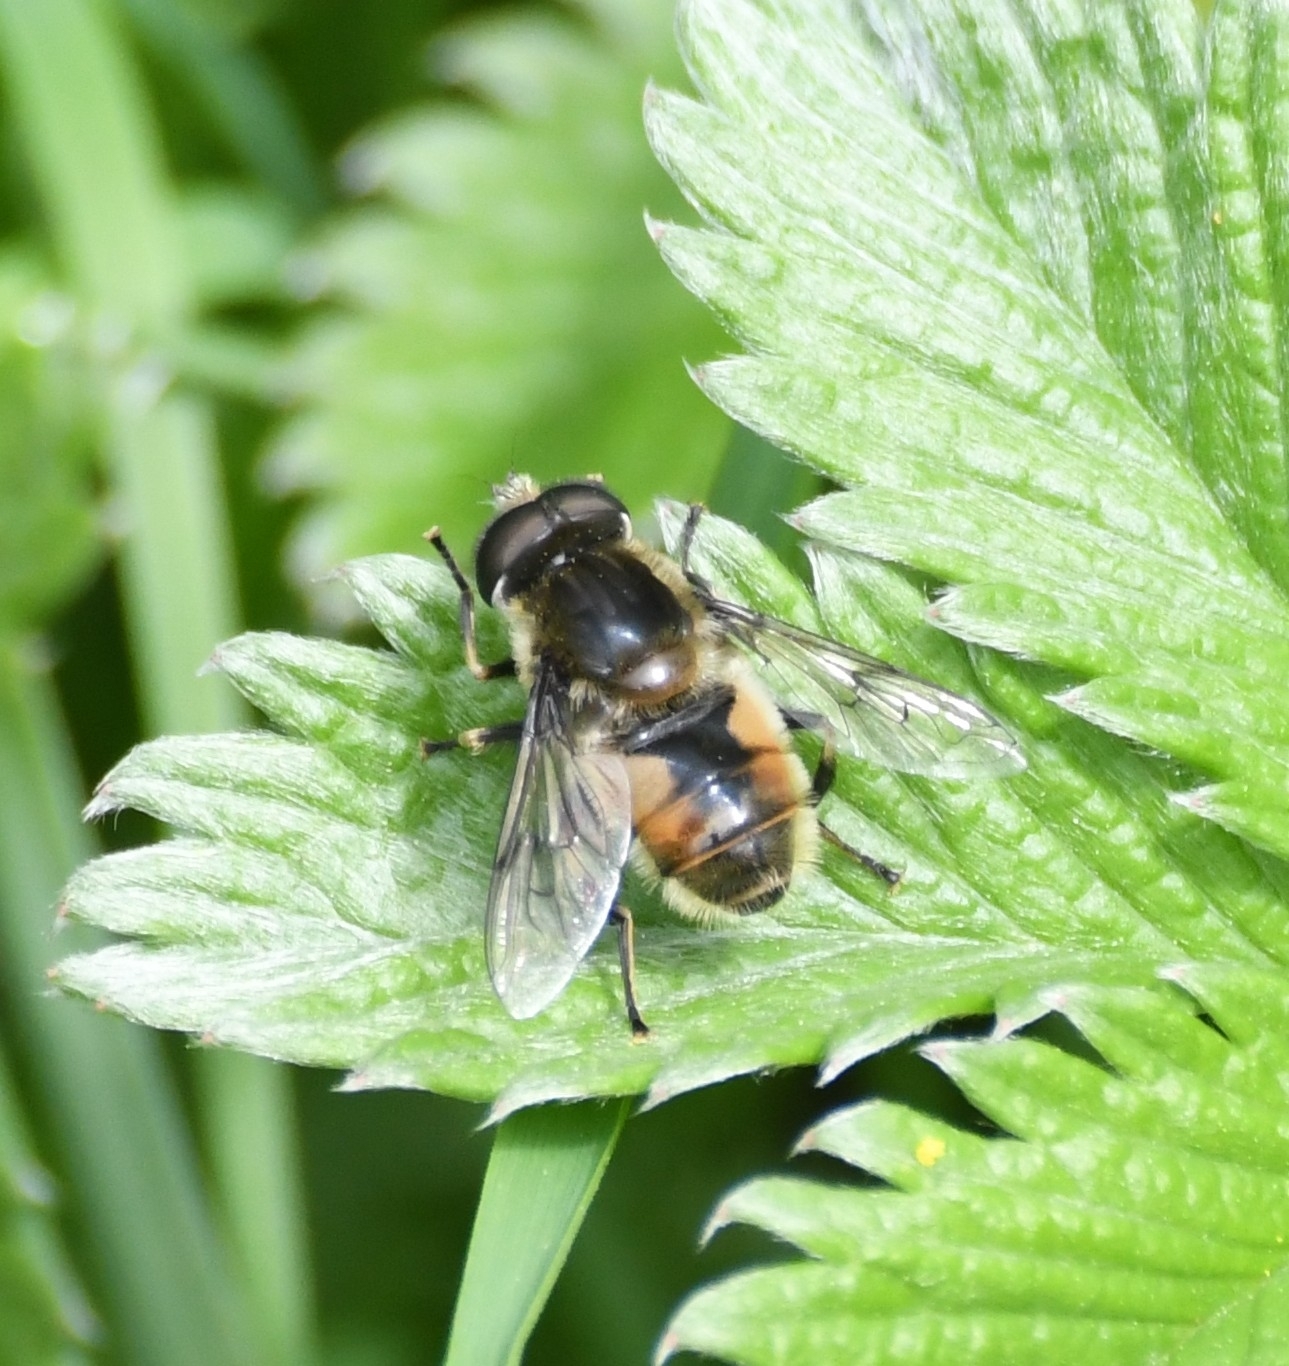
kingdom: Animalia
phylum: Arthropoda
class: Insecta
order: Diptera
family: Syrphidae
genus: Eristalis
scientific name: Eristalis anthophorina
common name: Orange-spotted drone fly
